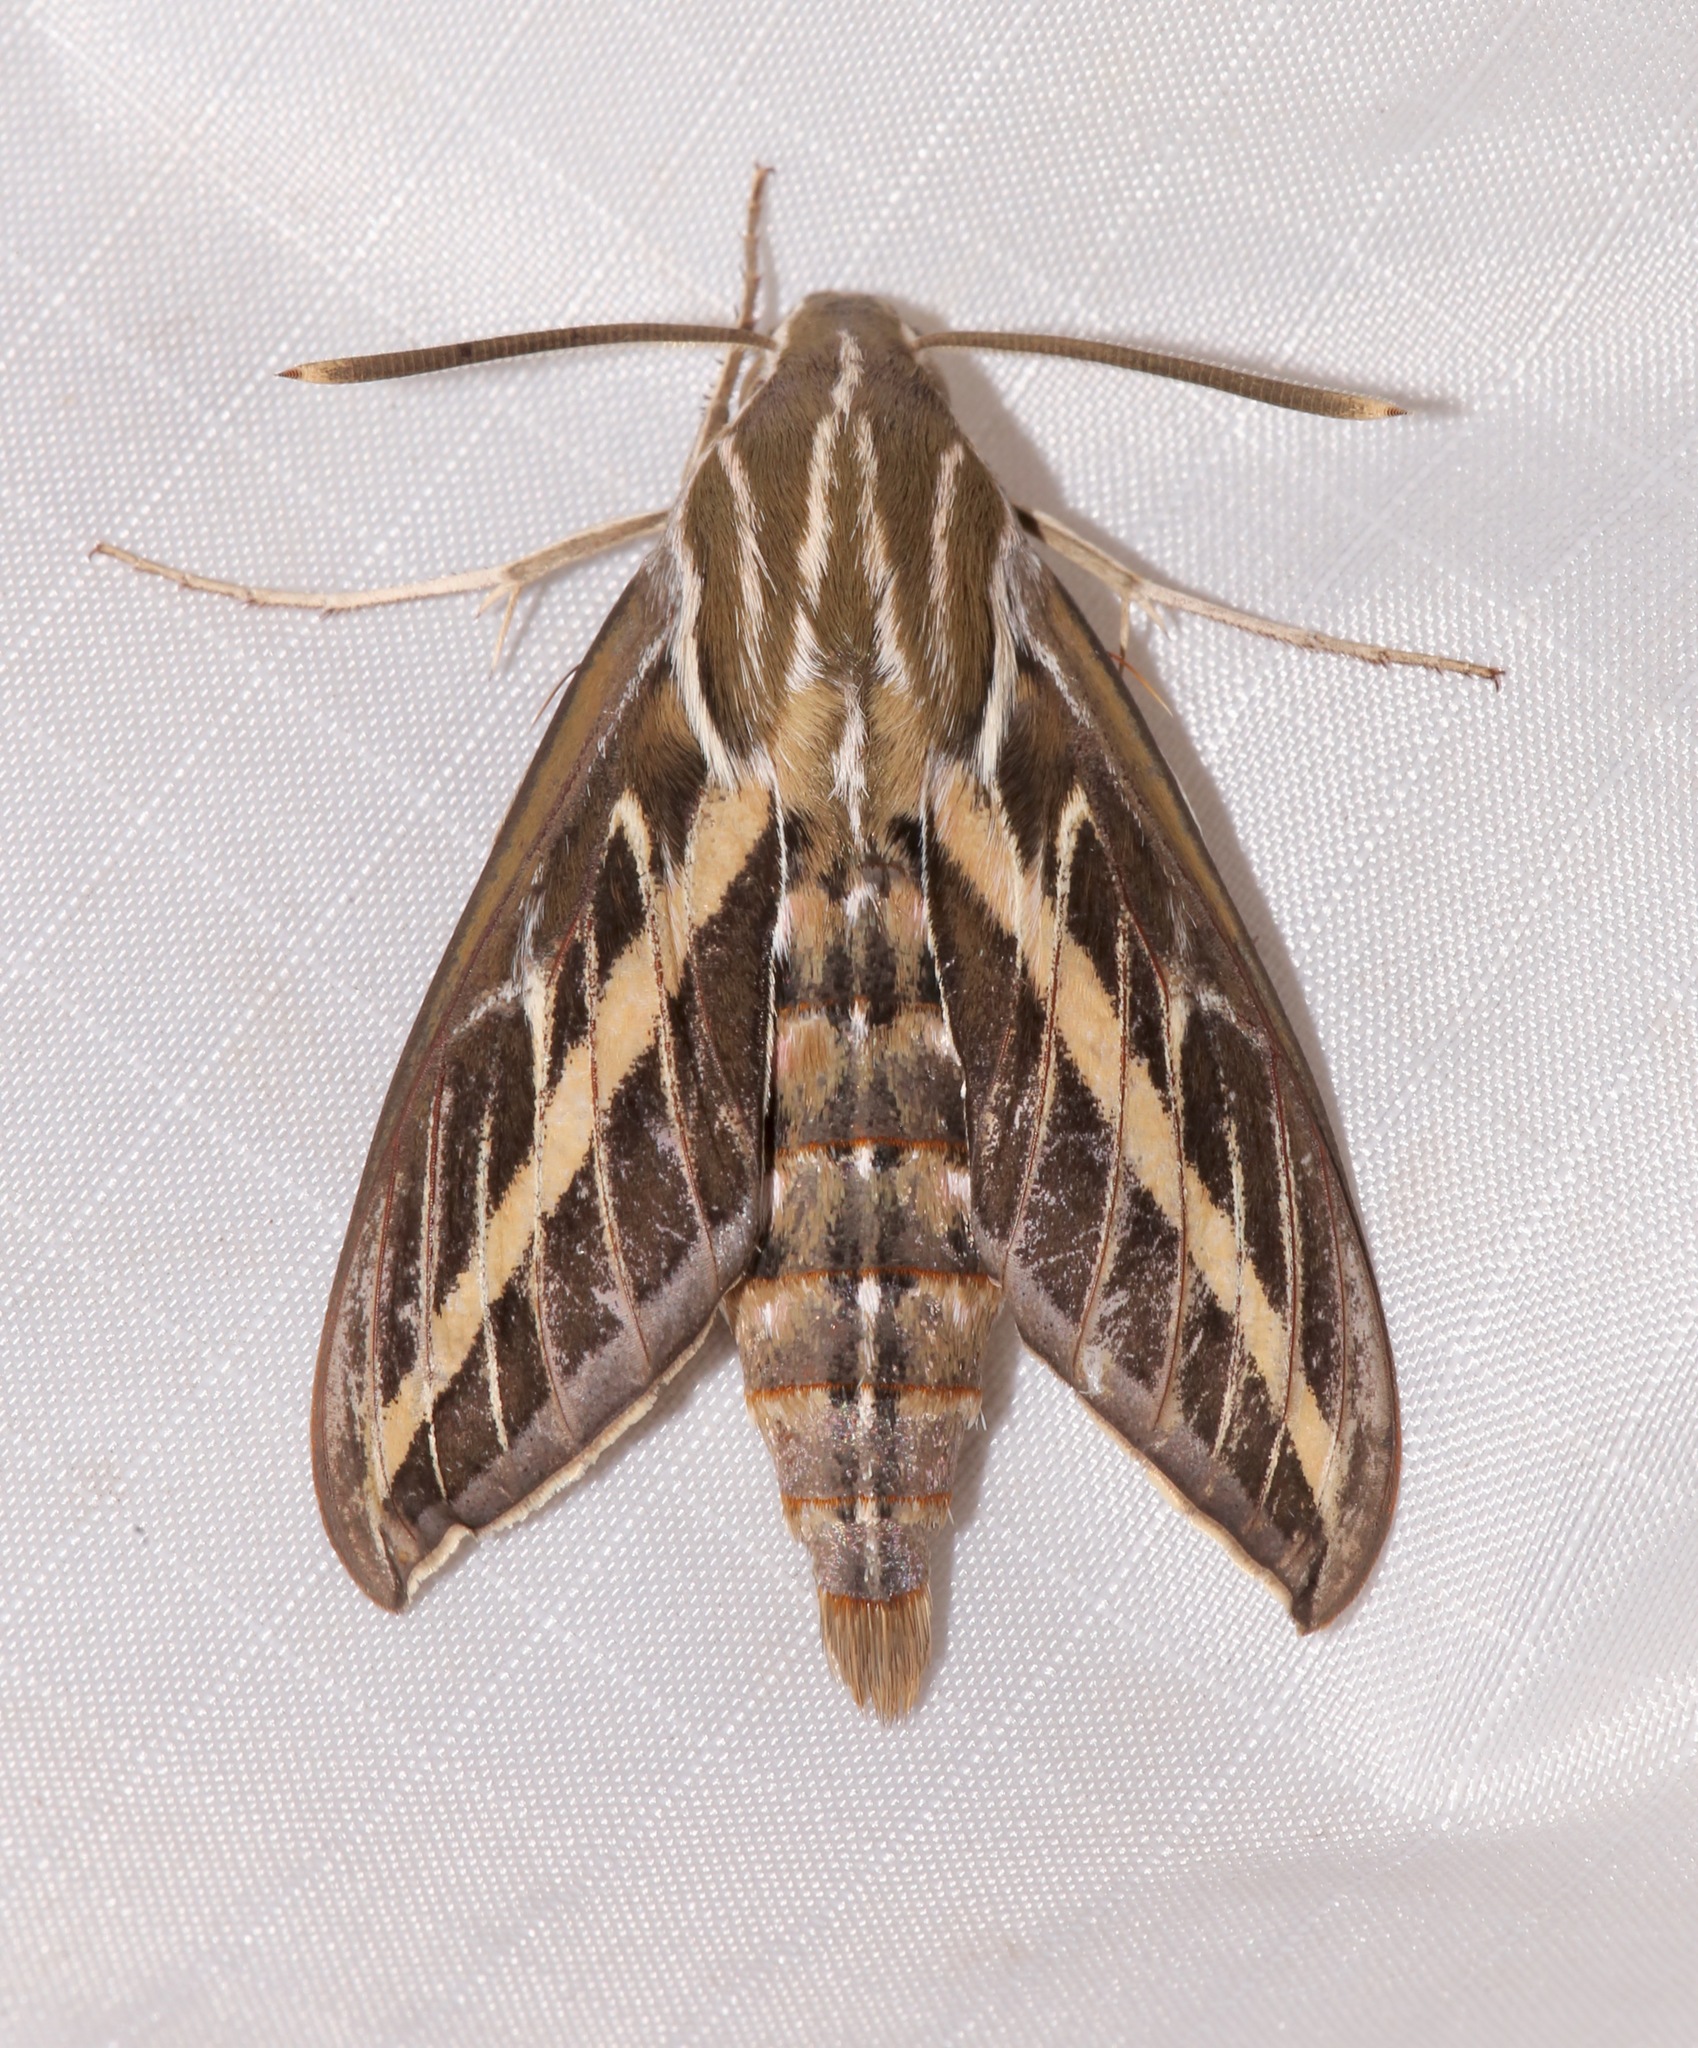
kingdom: Animalia
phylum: Arthropoda
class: Insecta
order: Lepidoptera
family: Sphingidae
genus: Hyles
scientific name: Hyles lineata
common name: White-lined sphinx
